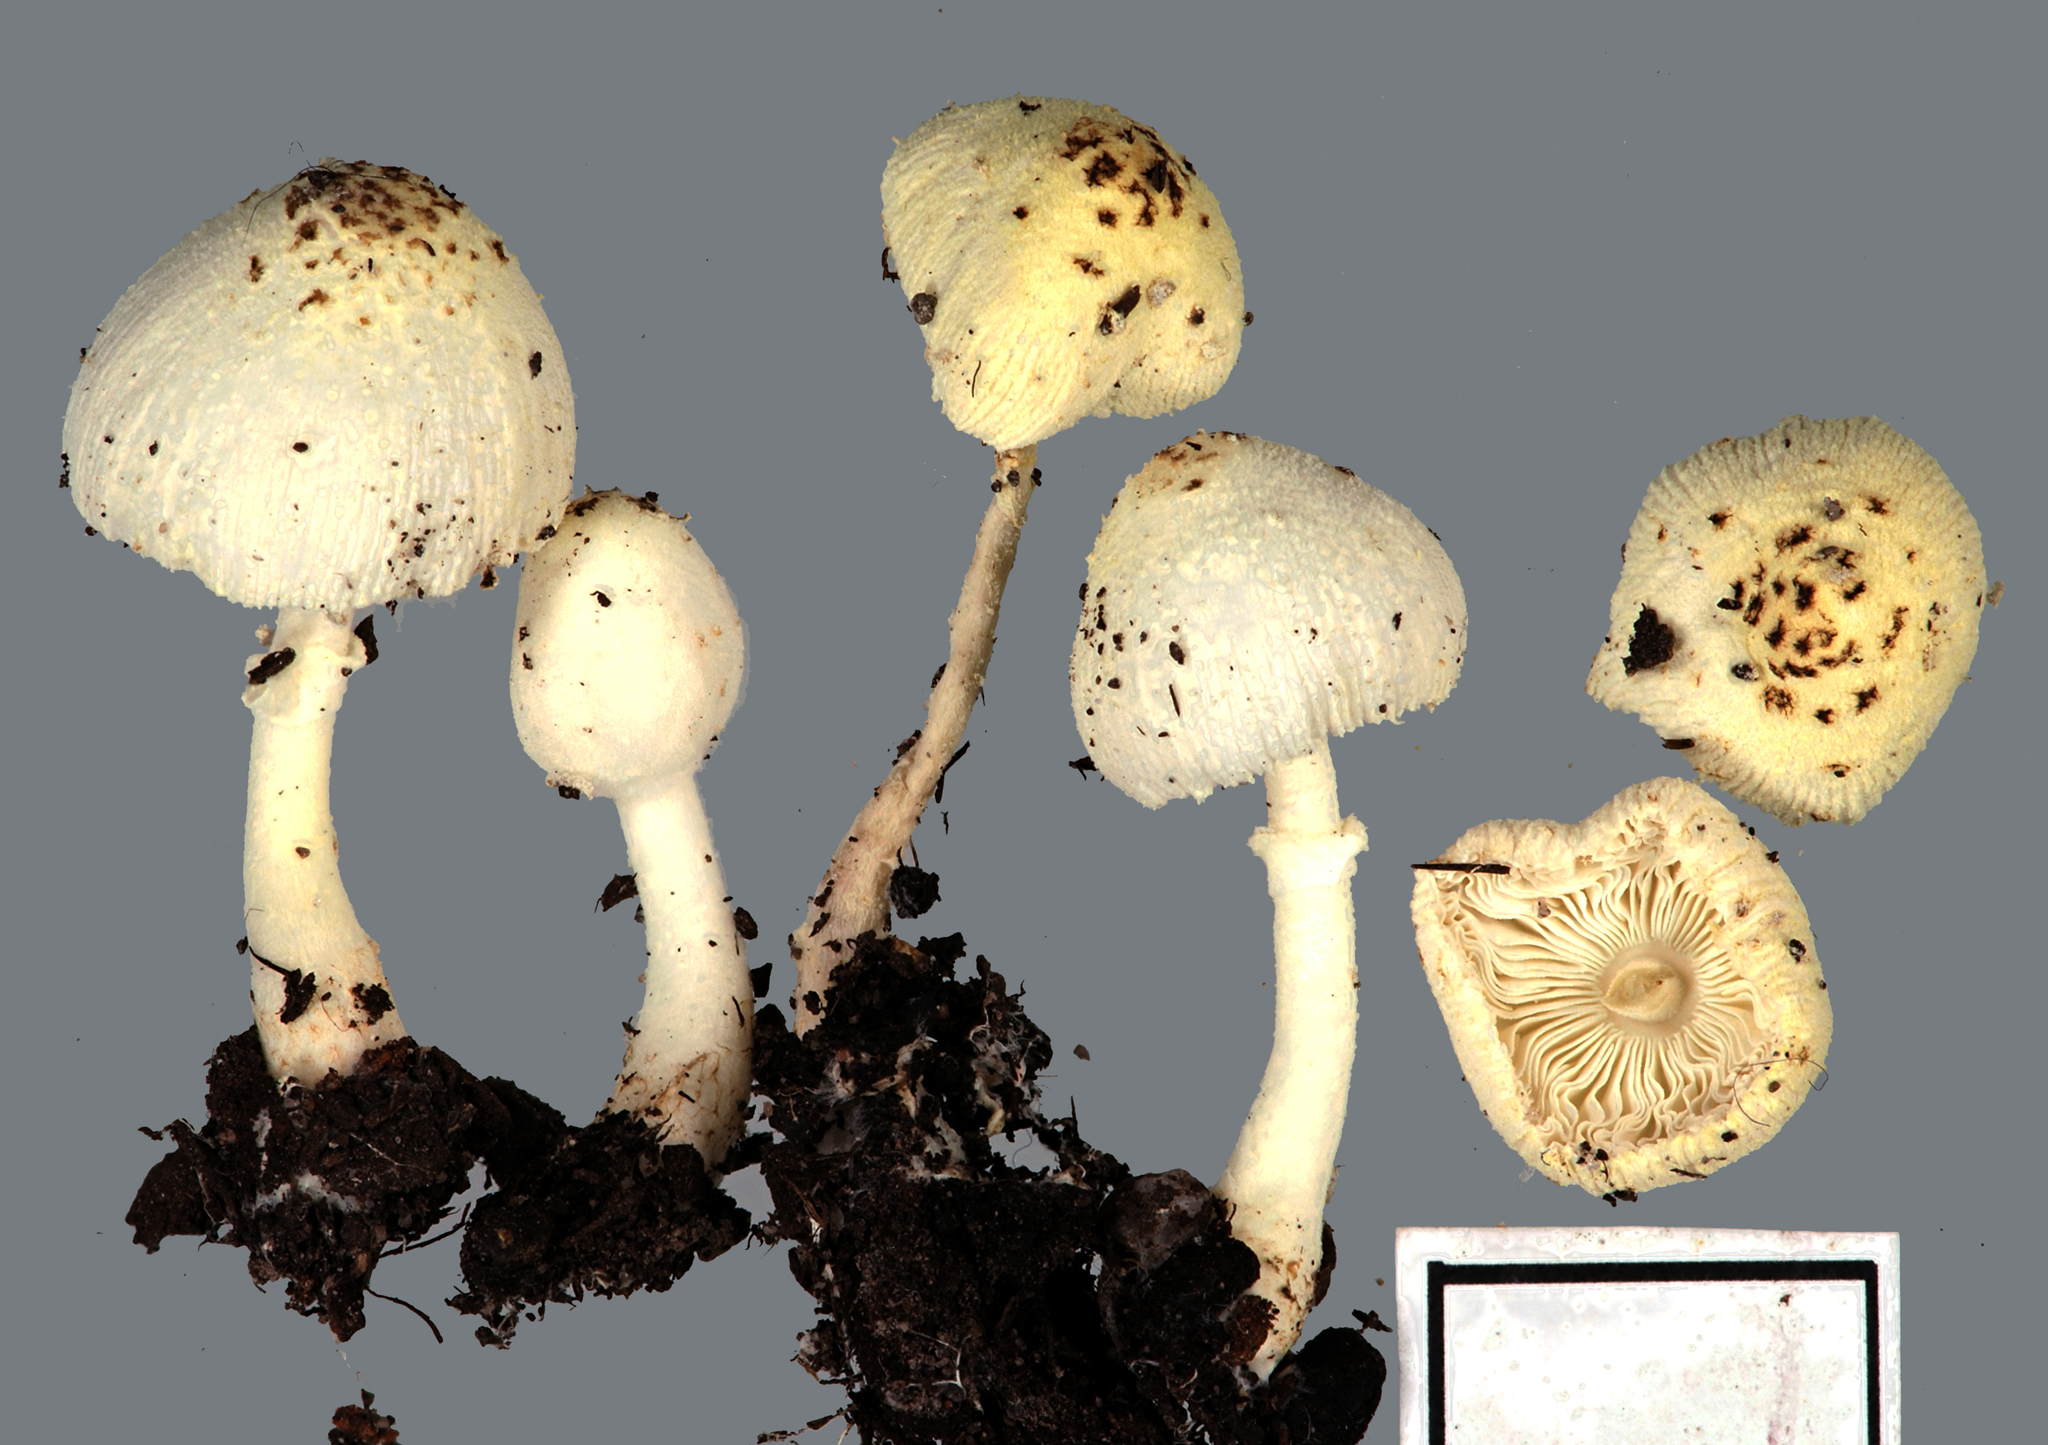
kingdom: Fungi
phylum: Basidiomycota
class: Agaricomycetes
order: Agaricales
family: Agaricaceae
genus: Leucocoprinus
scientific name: Leucocoprinus straminellus
